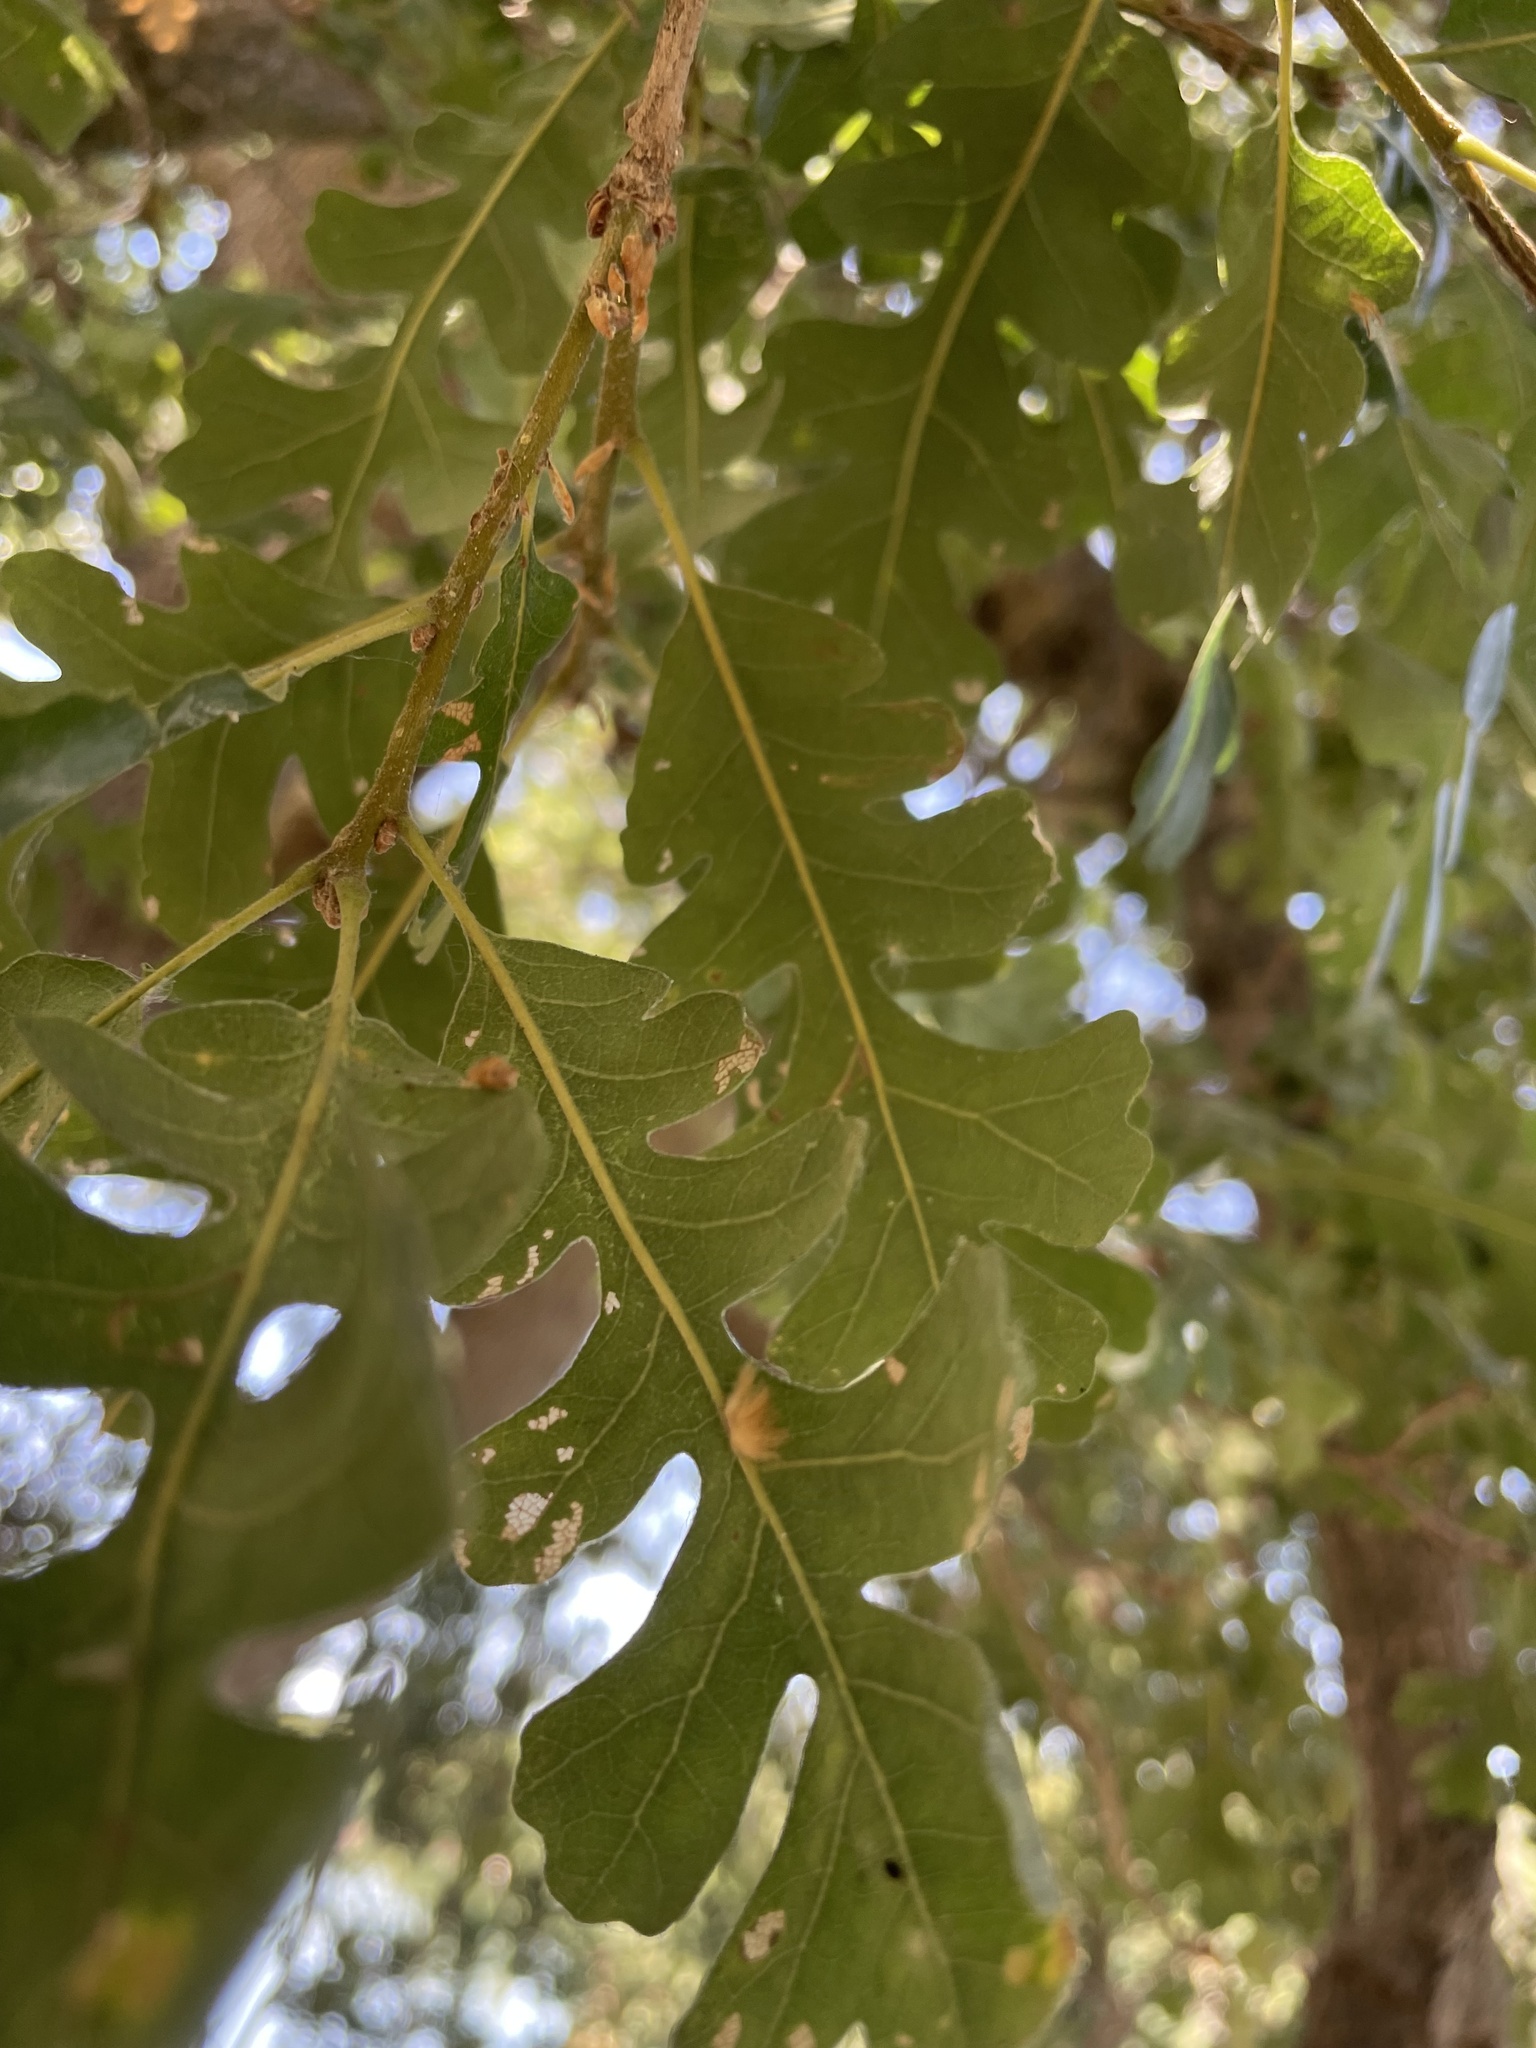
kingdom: Animalia
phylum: Arthropoda
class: Insecta
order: Hymenoptera
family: Cynipidae
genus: Andricus
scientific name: Andricus Druon fullawayi
